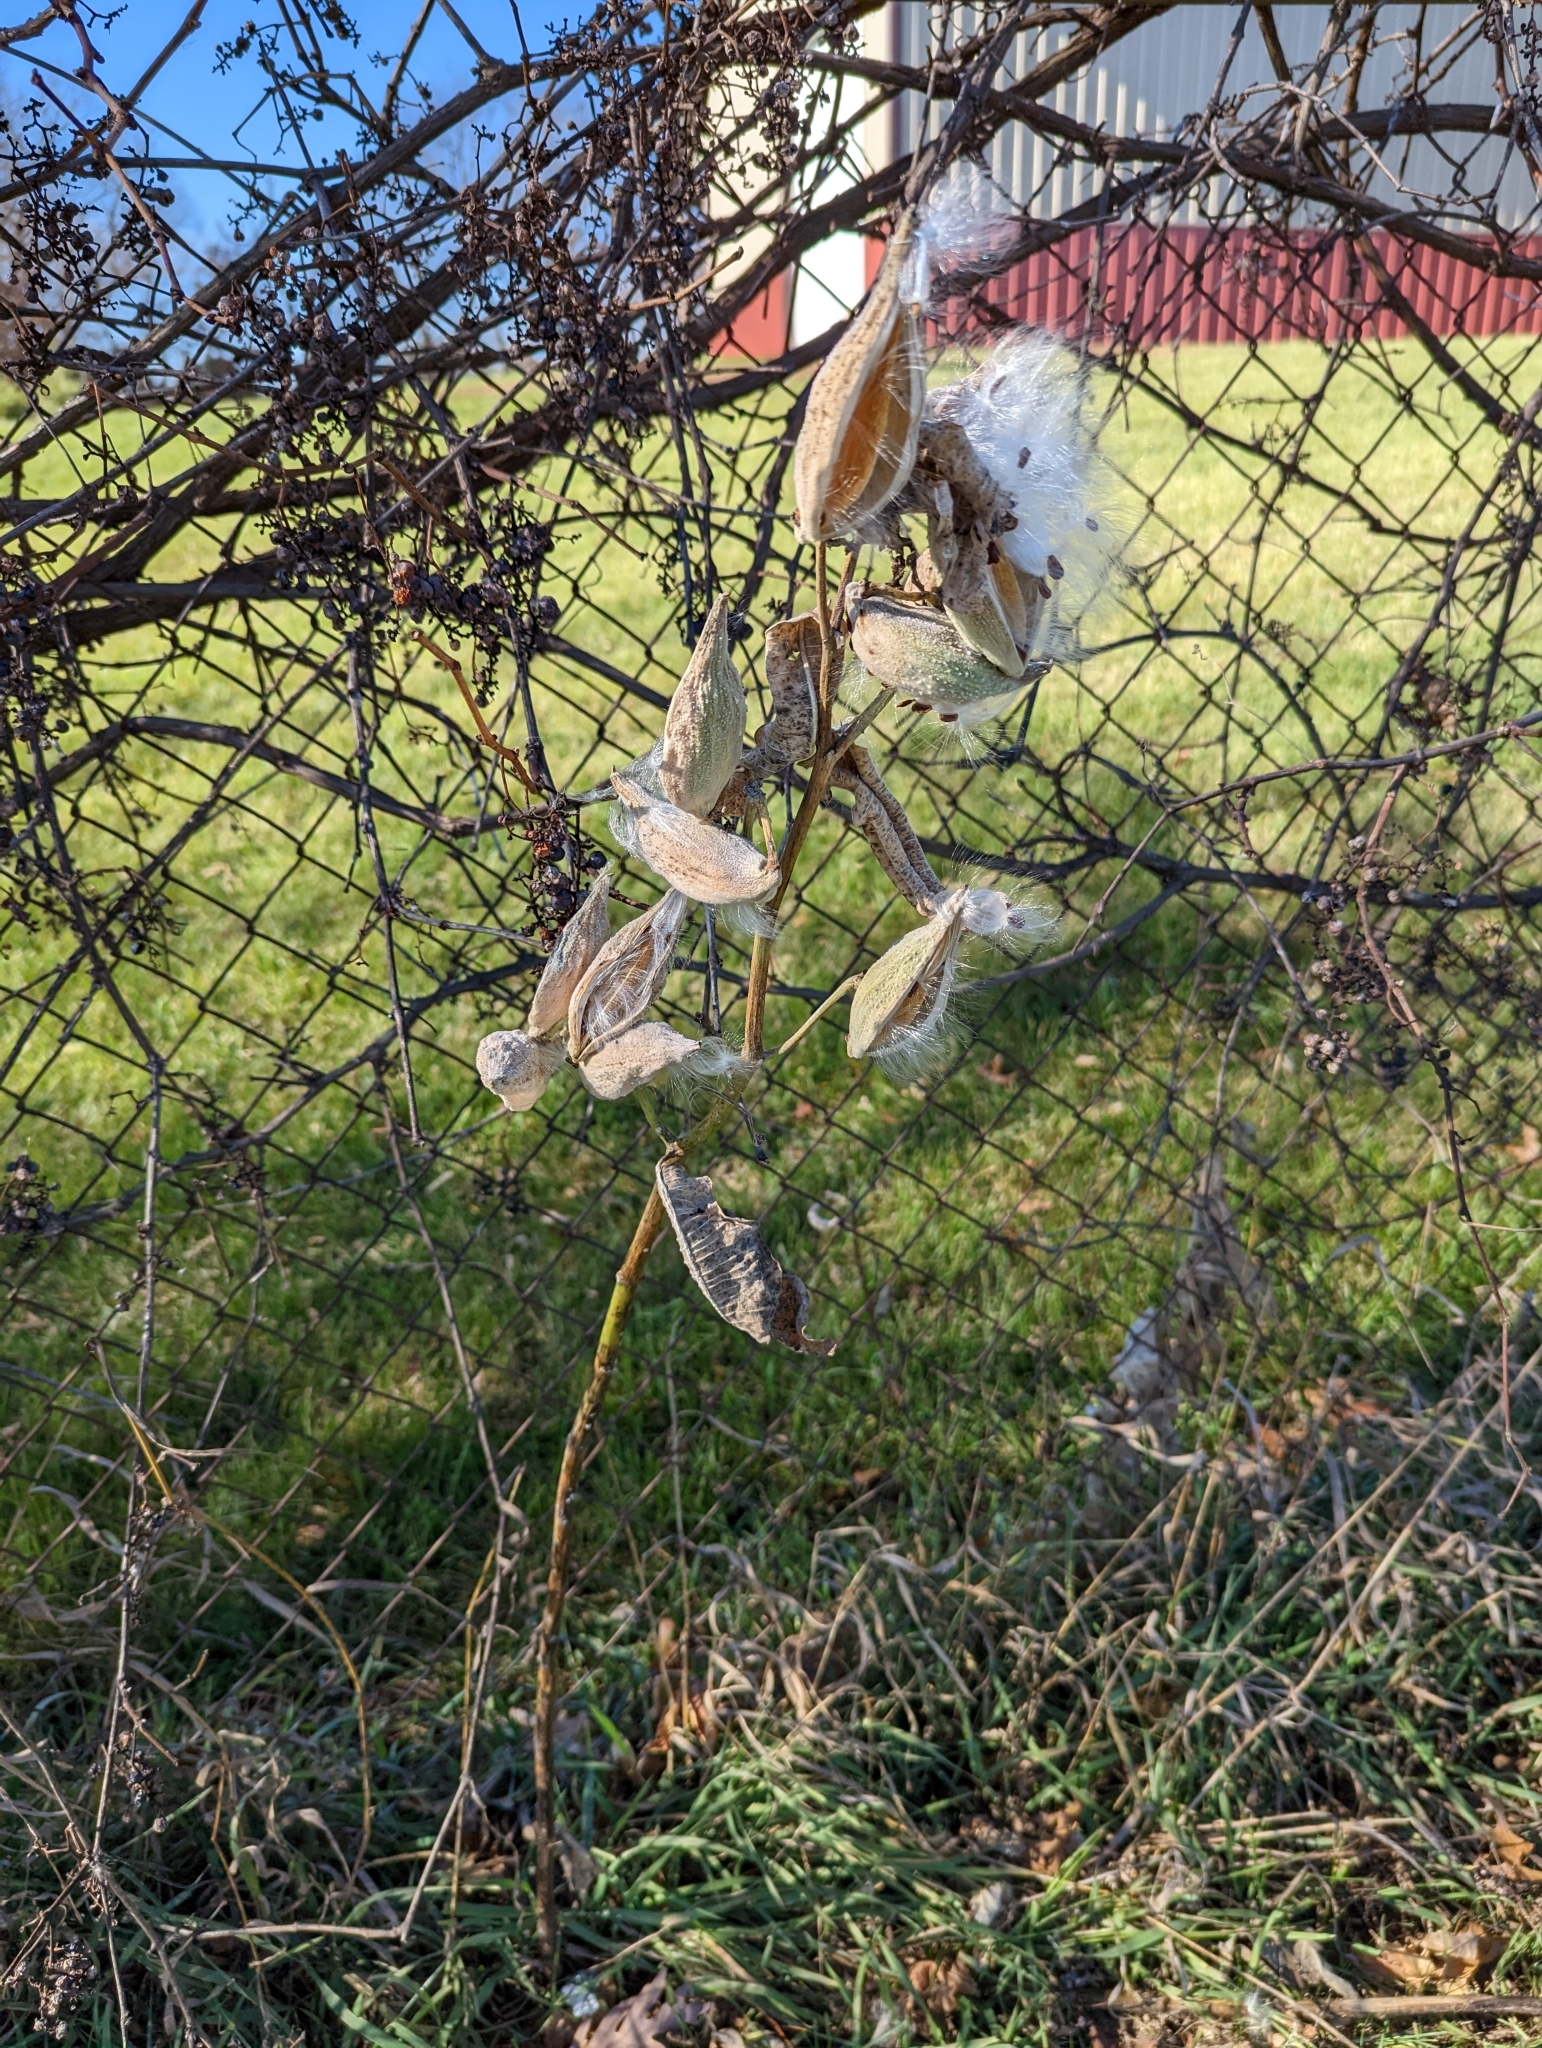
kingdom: Plantae
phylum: Tracheophyta
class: Magnoliopsida
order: Gentianales
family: Apocynaceae
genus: Asclepias
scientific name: Asclepias syriaca
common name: Common milkweed
